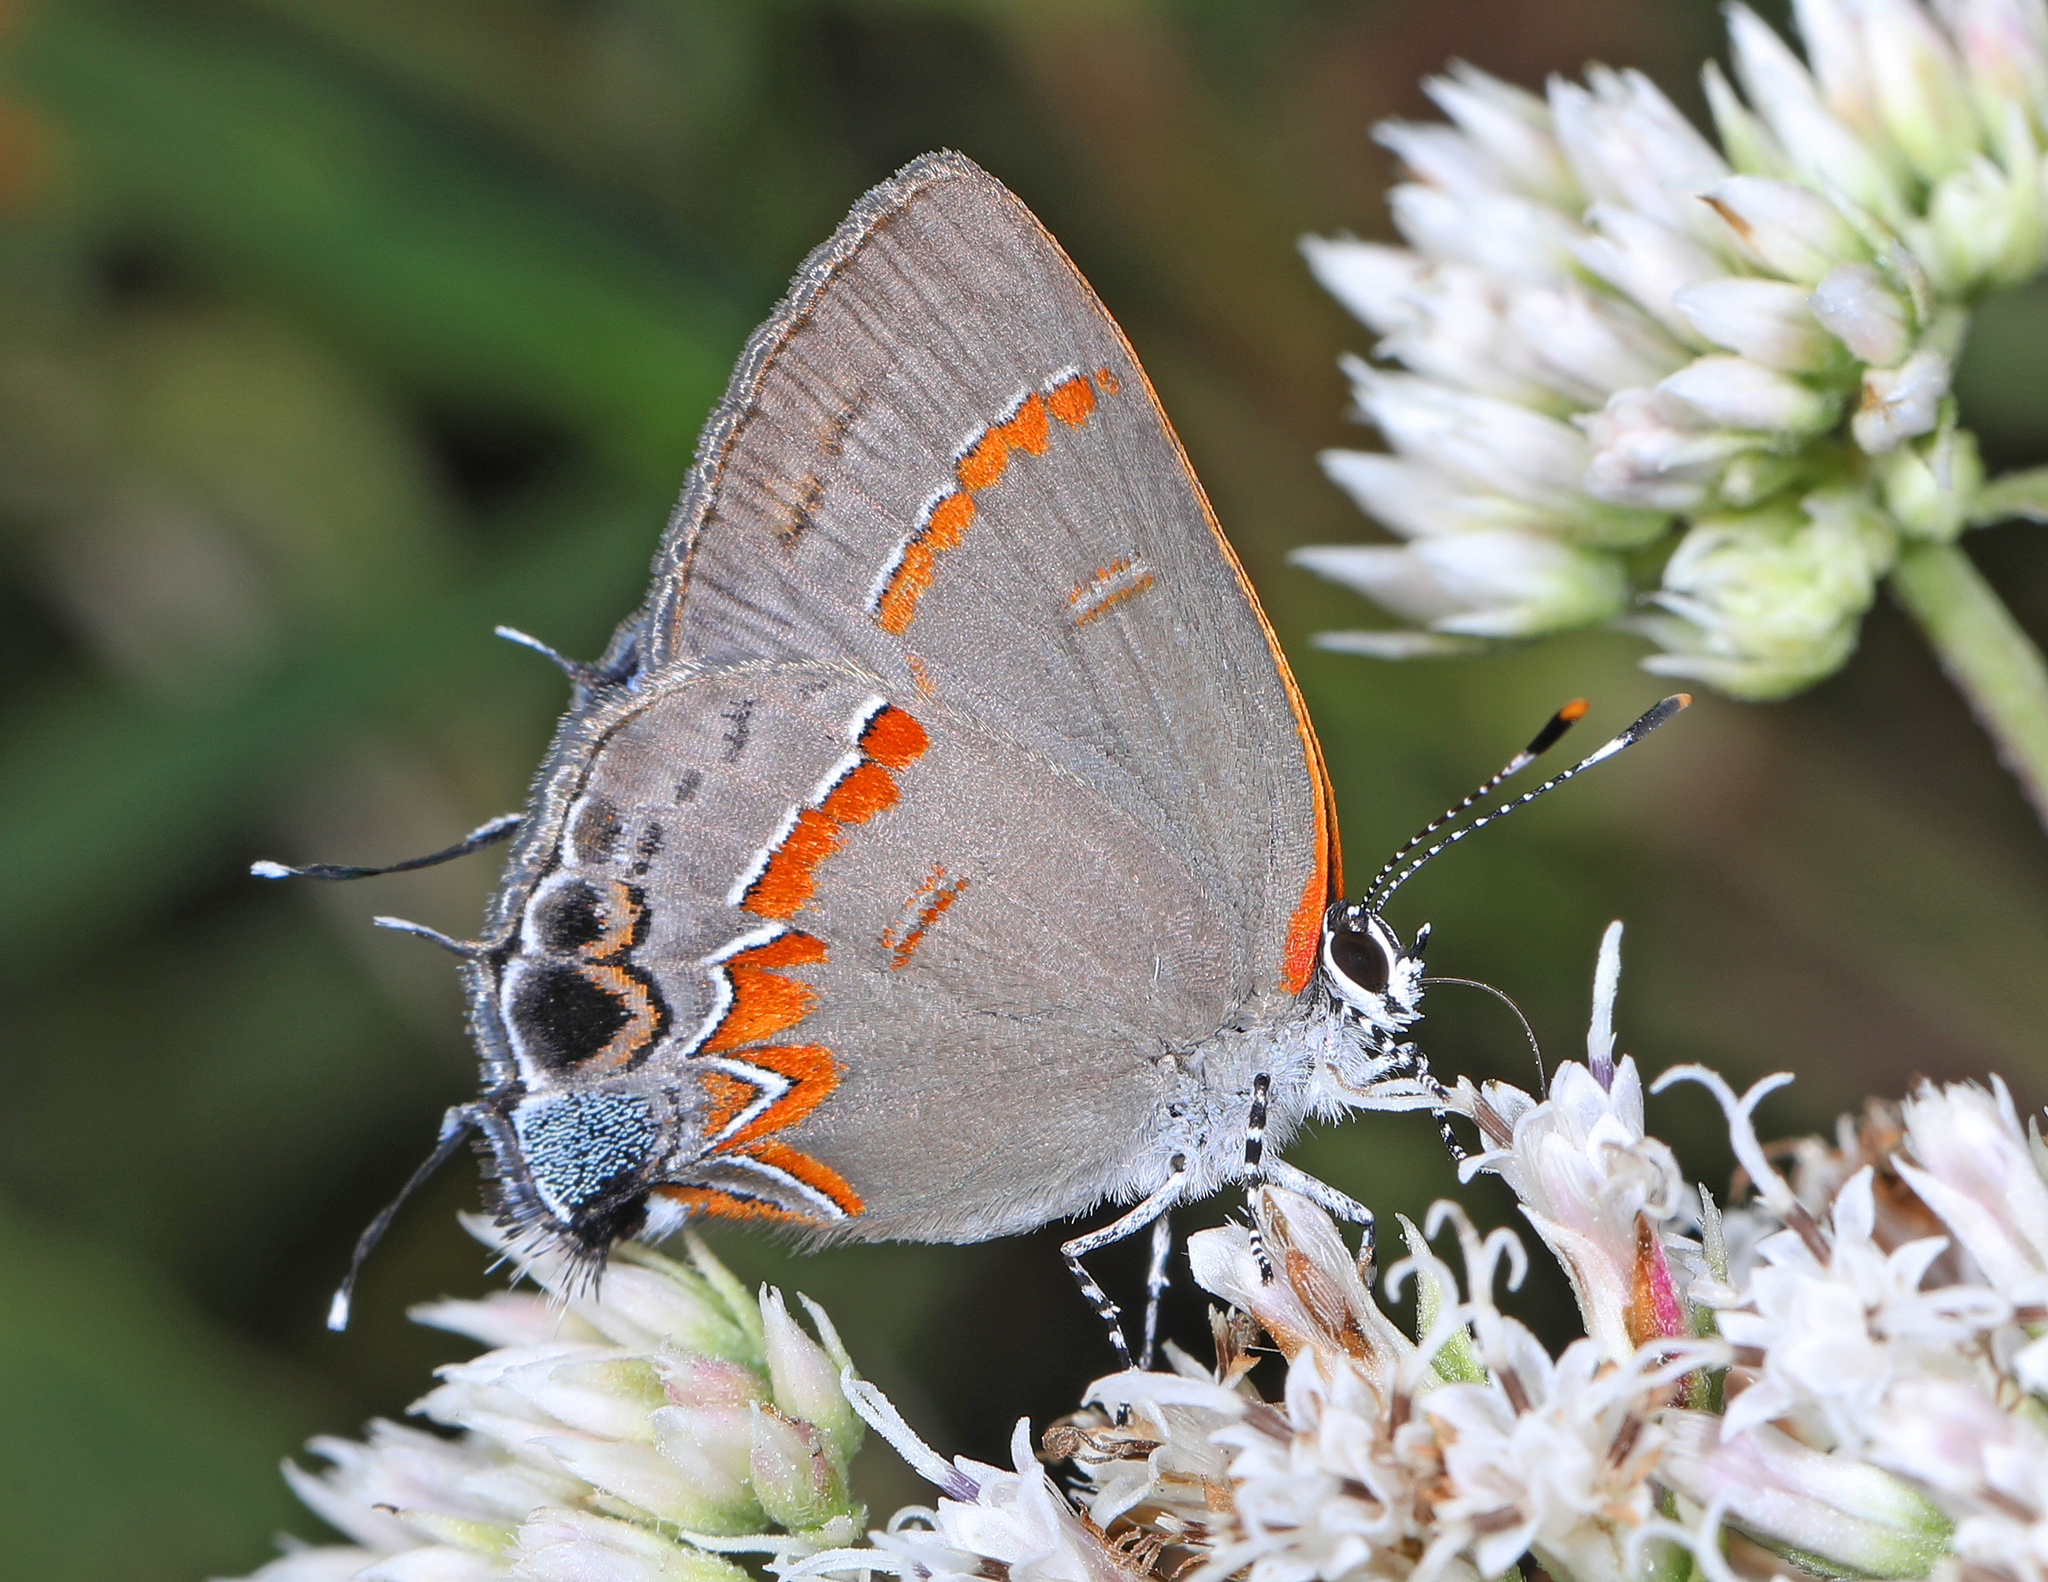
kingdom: Animalia
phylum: Arthropoda
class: Insecta
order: Lepidoptera
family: Lycaenidae
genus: Calycopis
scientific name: Calycopis cecrops
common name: Red-banded hairstreak
